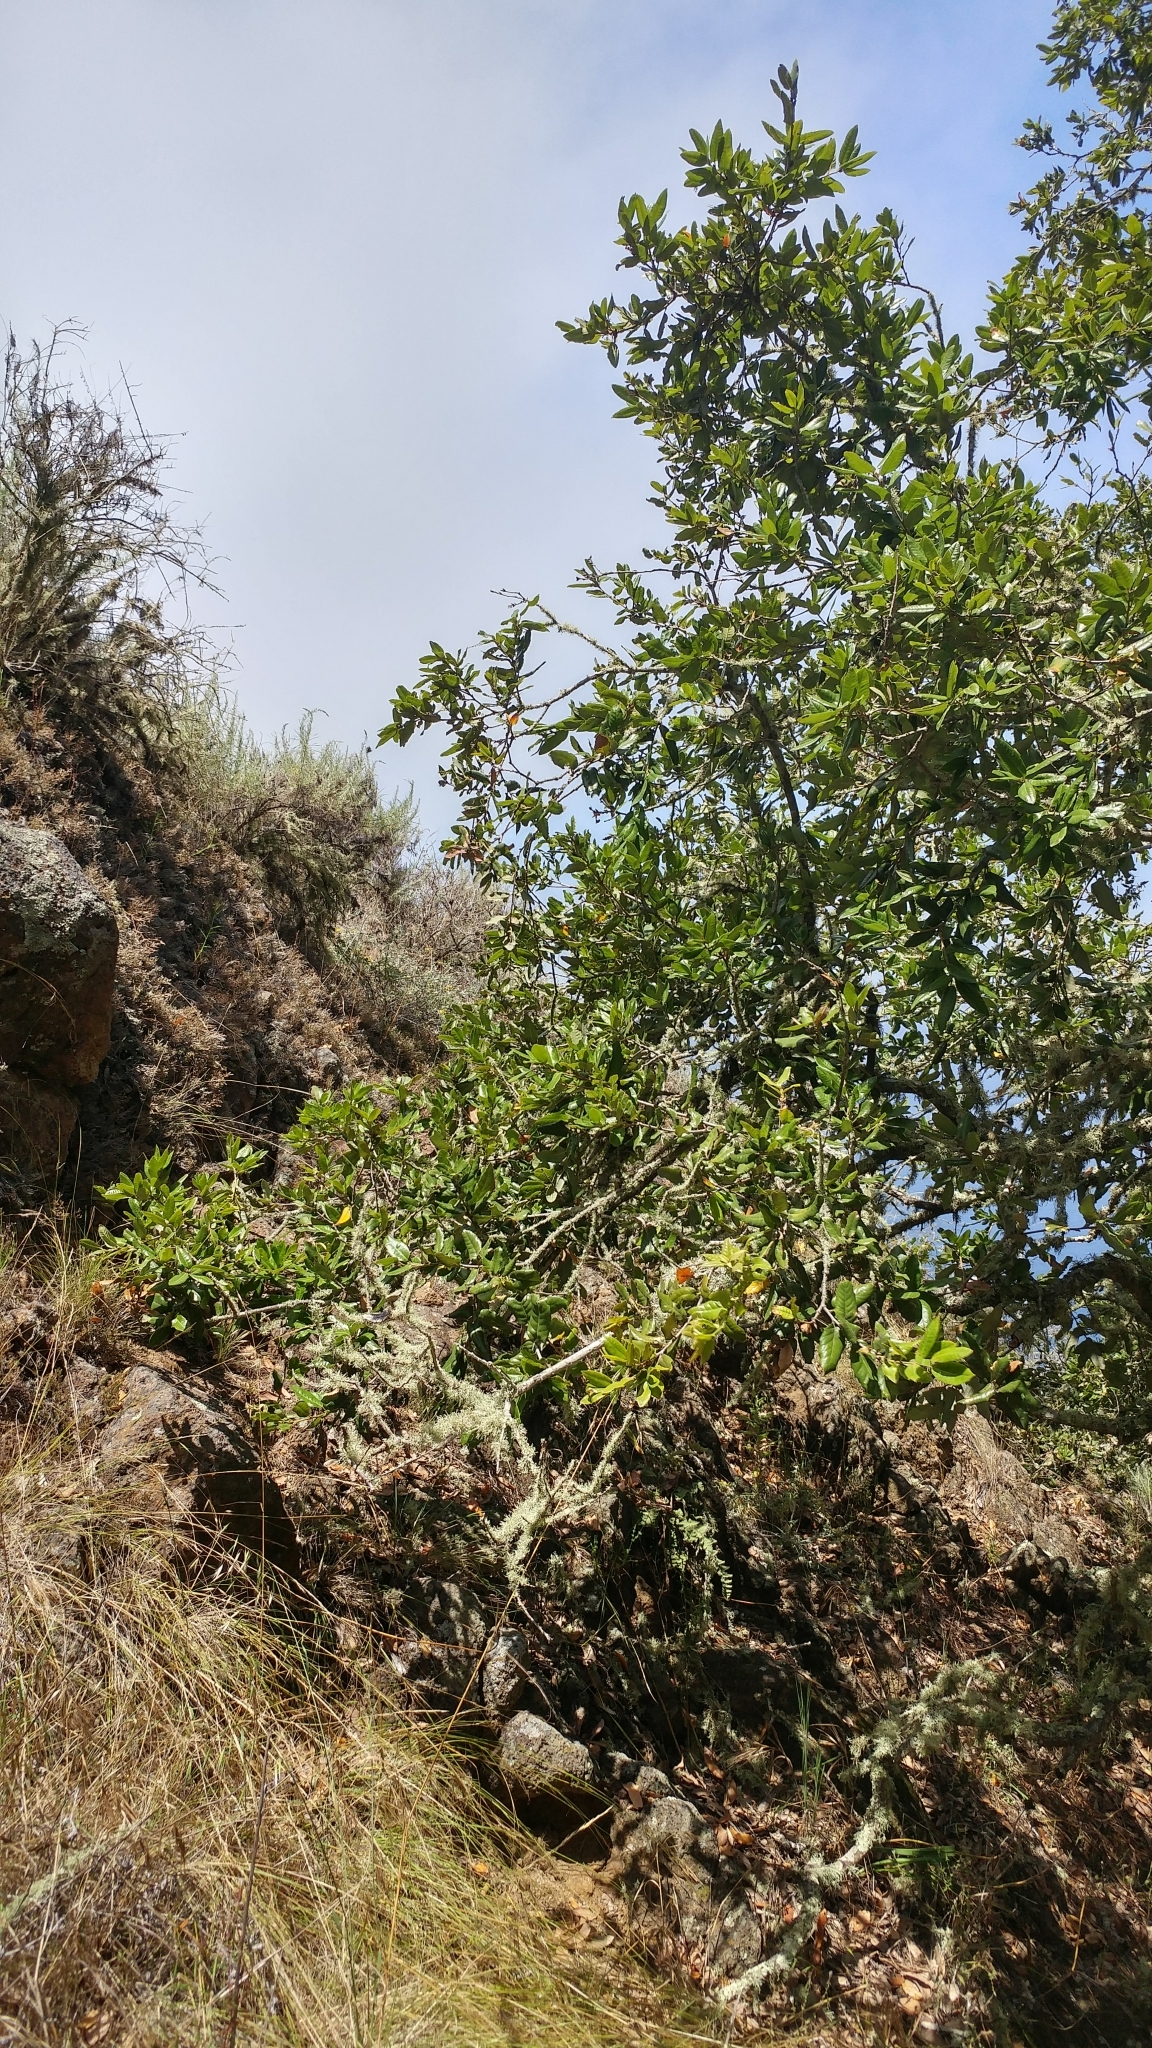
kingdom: Plantae
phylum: Tracheophyta
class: Magnoliopsida
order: Fagales
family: Fagaceae
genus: Quercus
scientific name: Quercus tomentella
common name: Island oak
